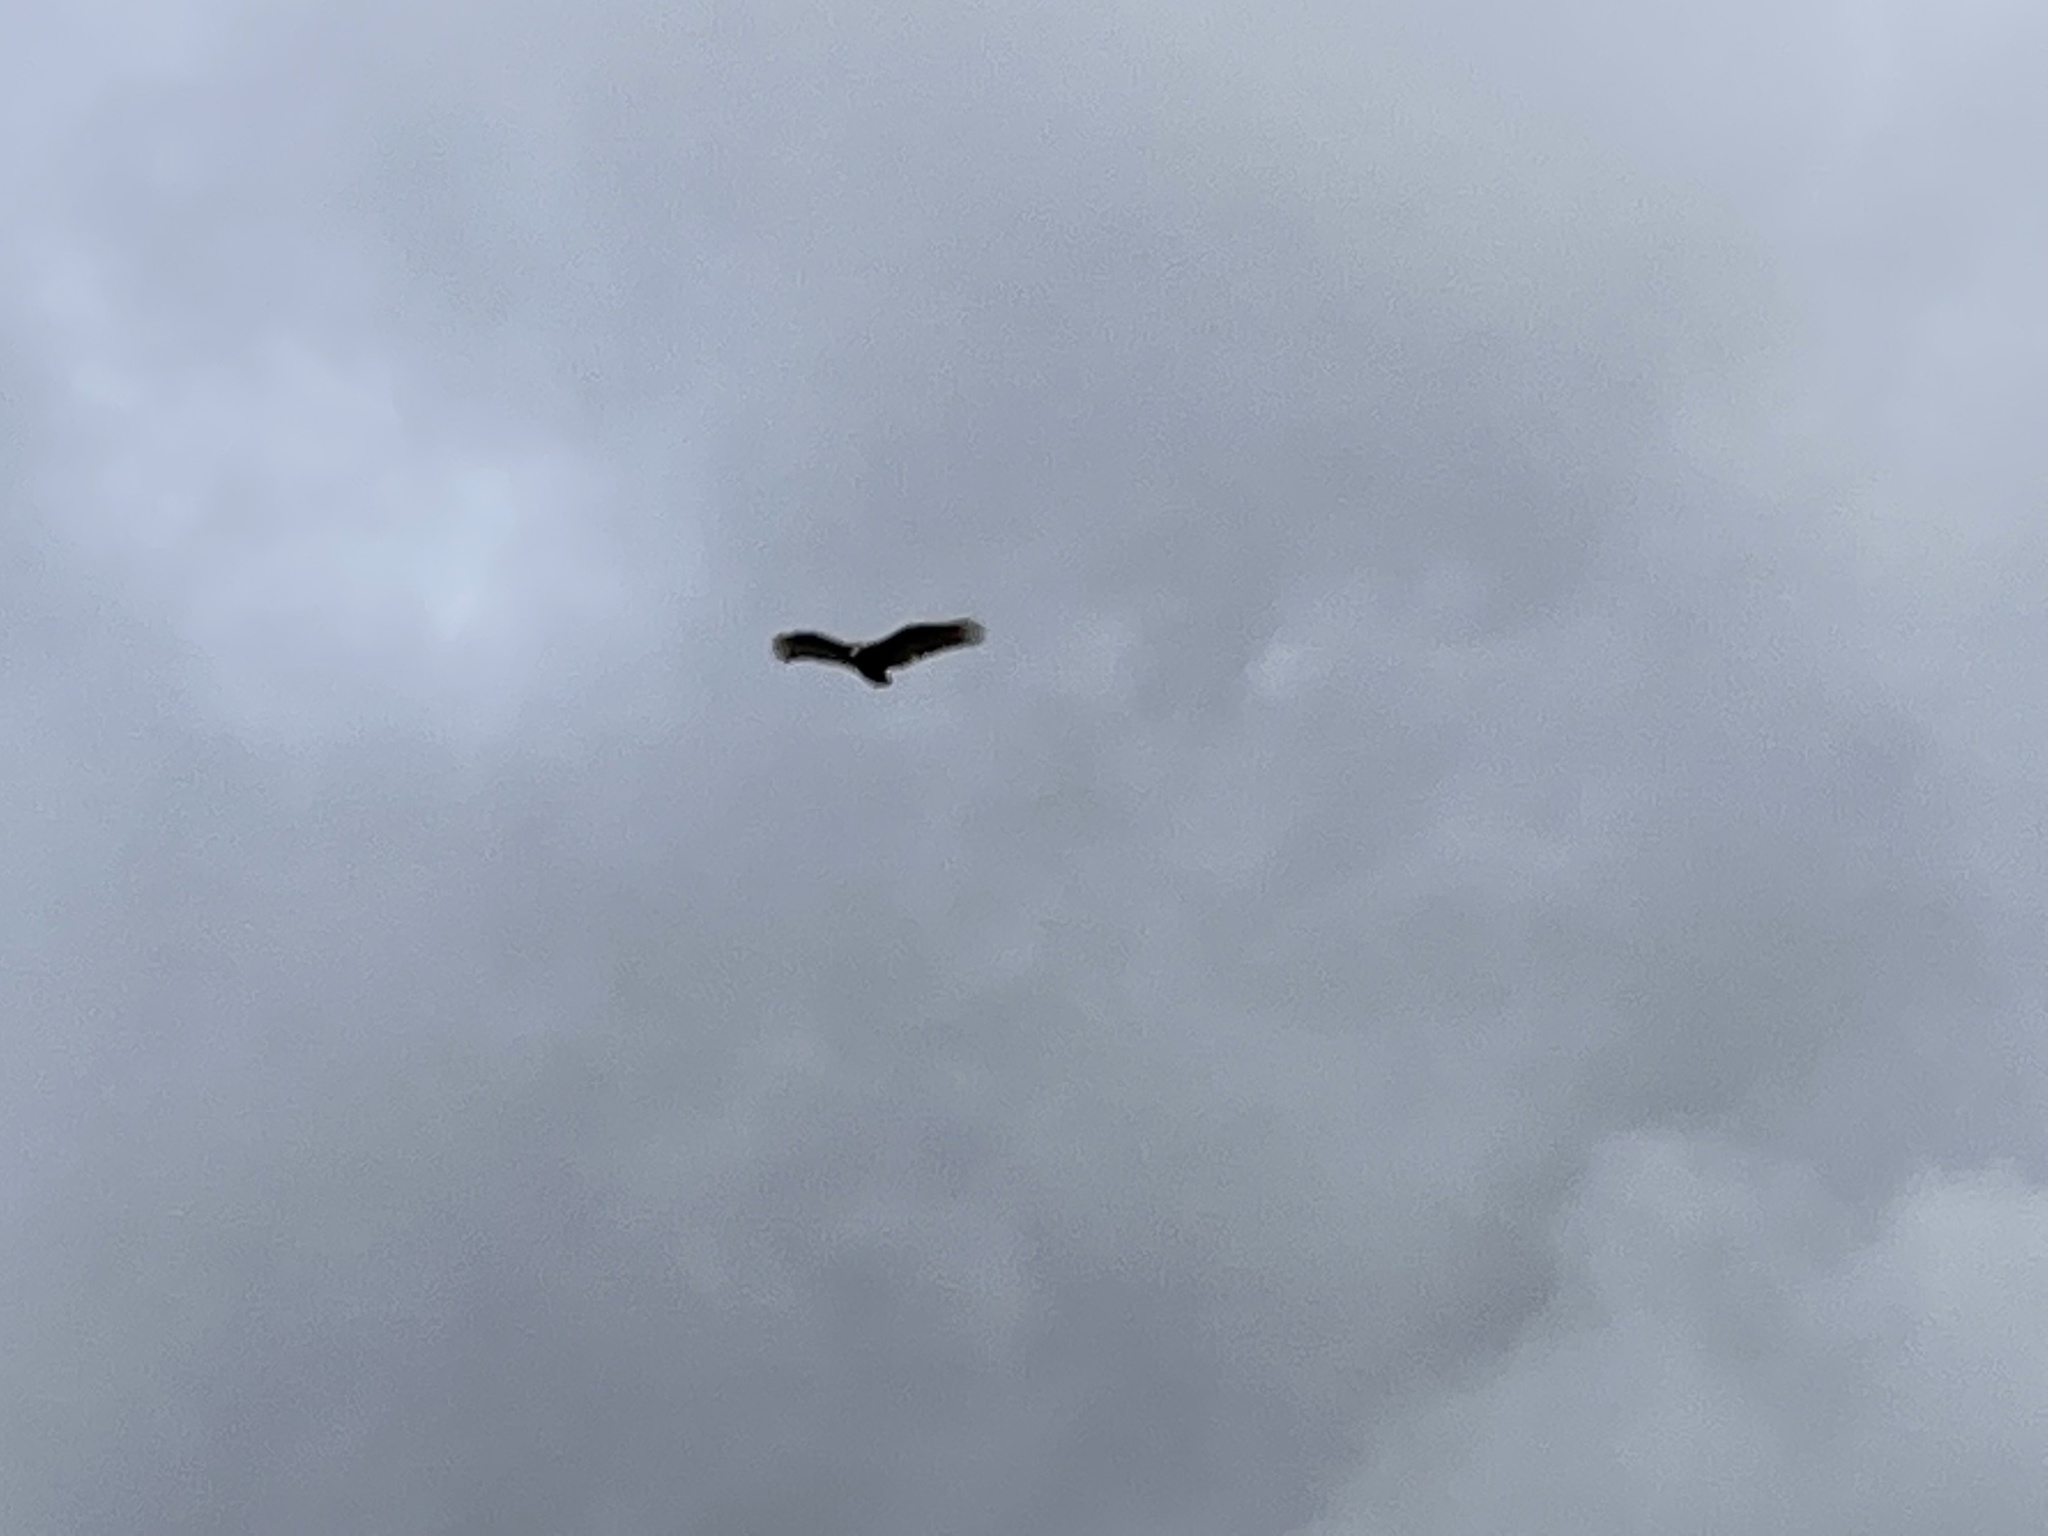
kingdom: Animalia
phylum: Chordata
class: Aves
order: Accipitriformes
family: Cathartidae
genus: Cathartes
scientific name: Cathartes aura
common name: Turkey vulture
